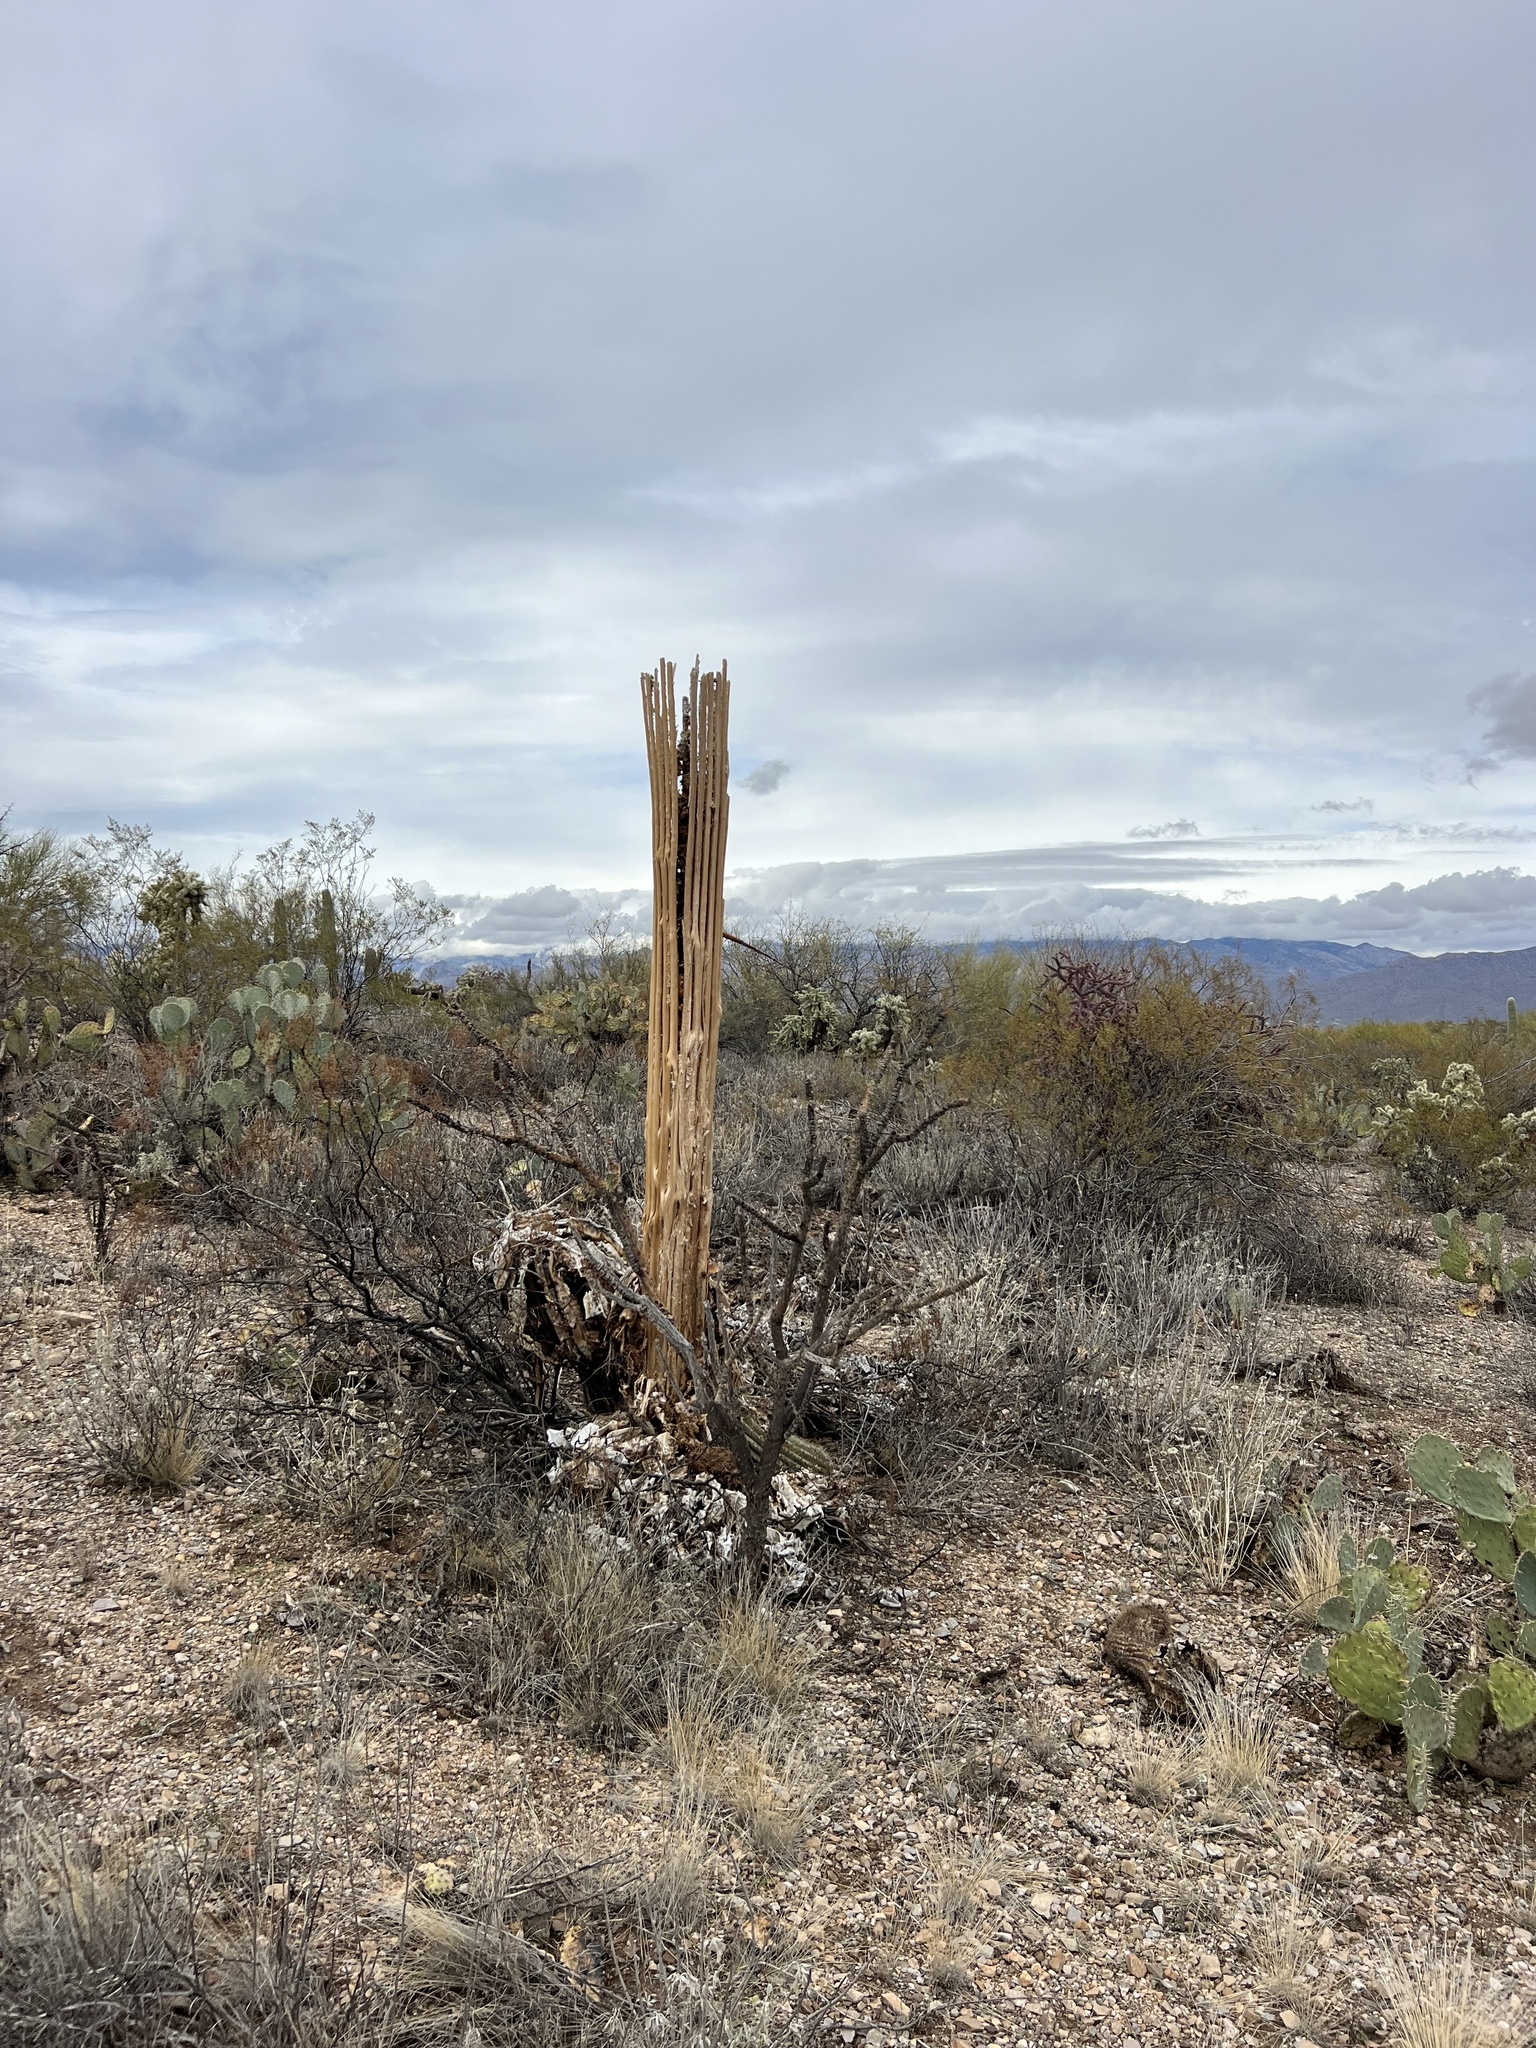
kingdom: Plantae
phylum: Tracheophyta
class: Magnoliopsida
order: Caryophyllales
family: Cactaceae
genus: Carnegiea
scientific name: Carnegiea gigantea
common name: Saguaro
